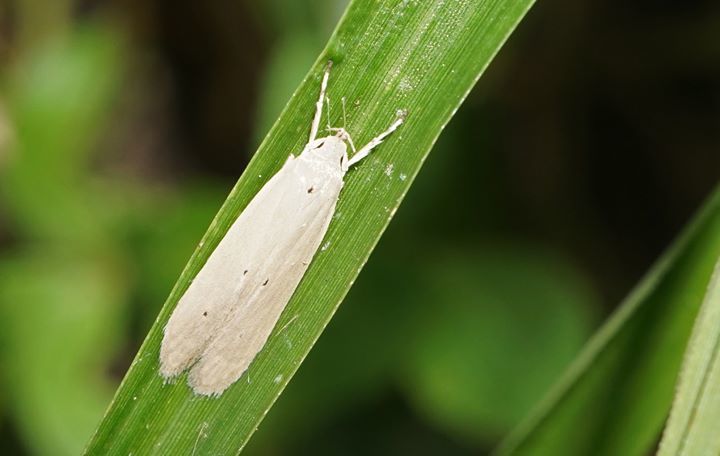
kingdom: Animalia
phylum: Arthropoda
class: Insecta
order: Lepidoptera
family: Coleophoridae
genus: Homaledra
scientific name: Homaledra sabalella
